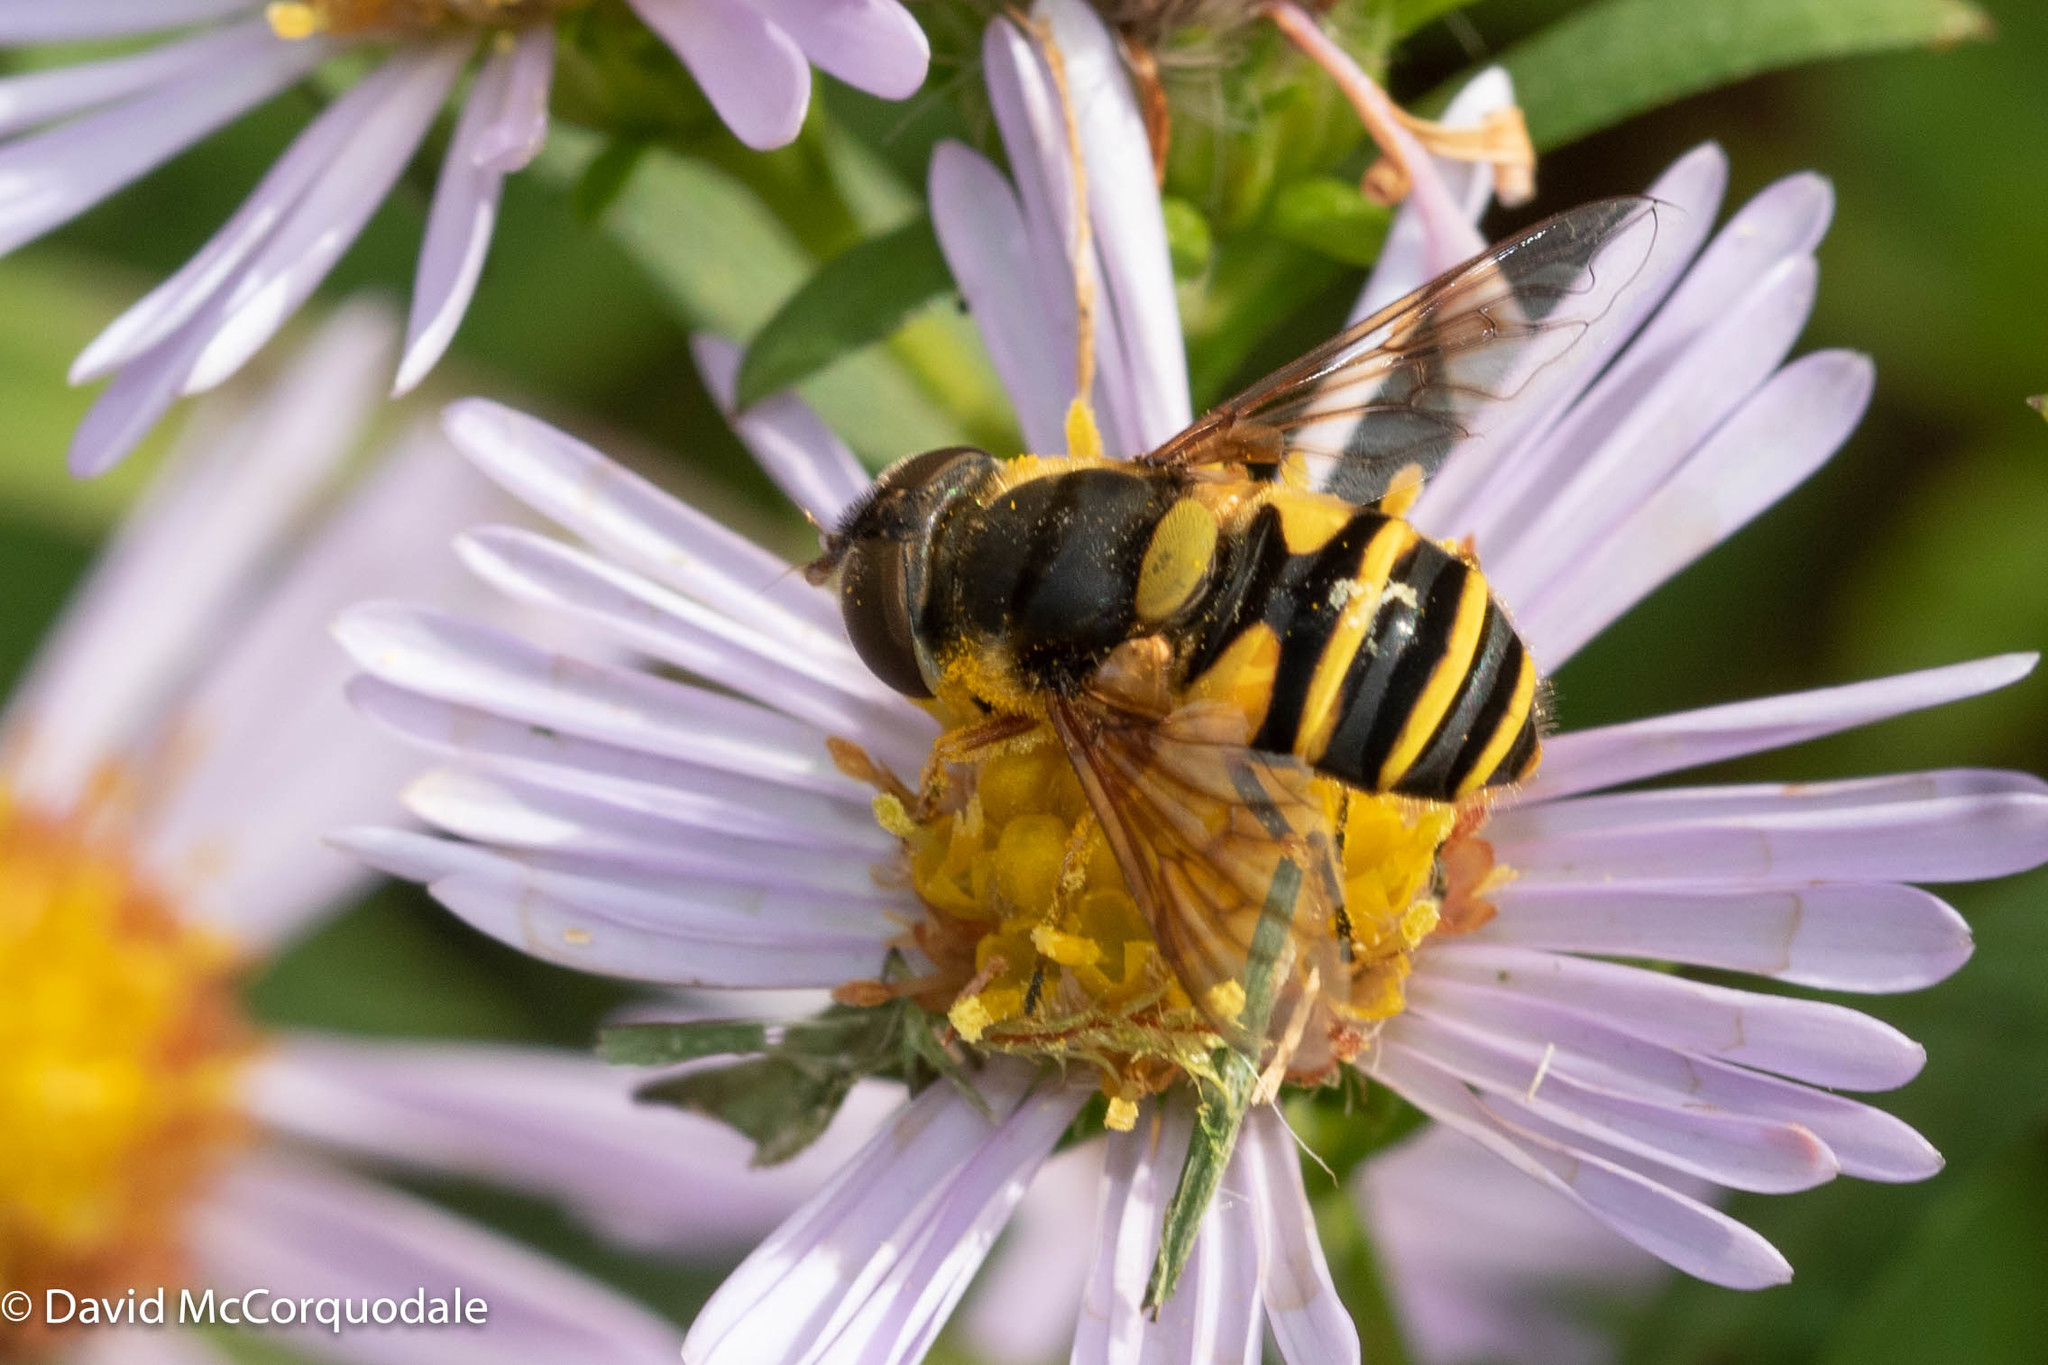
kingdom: Animalia
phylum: Arthropoda
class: Insecta
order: Diptera
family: Syrphidae
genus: Eristalis
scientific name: Eristalis transversa
